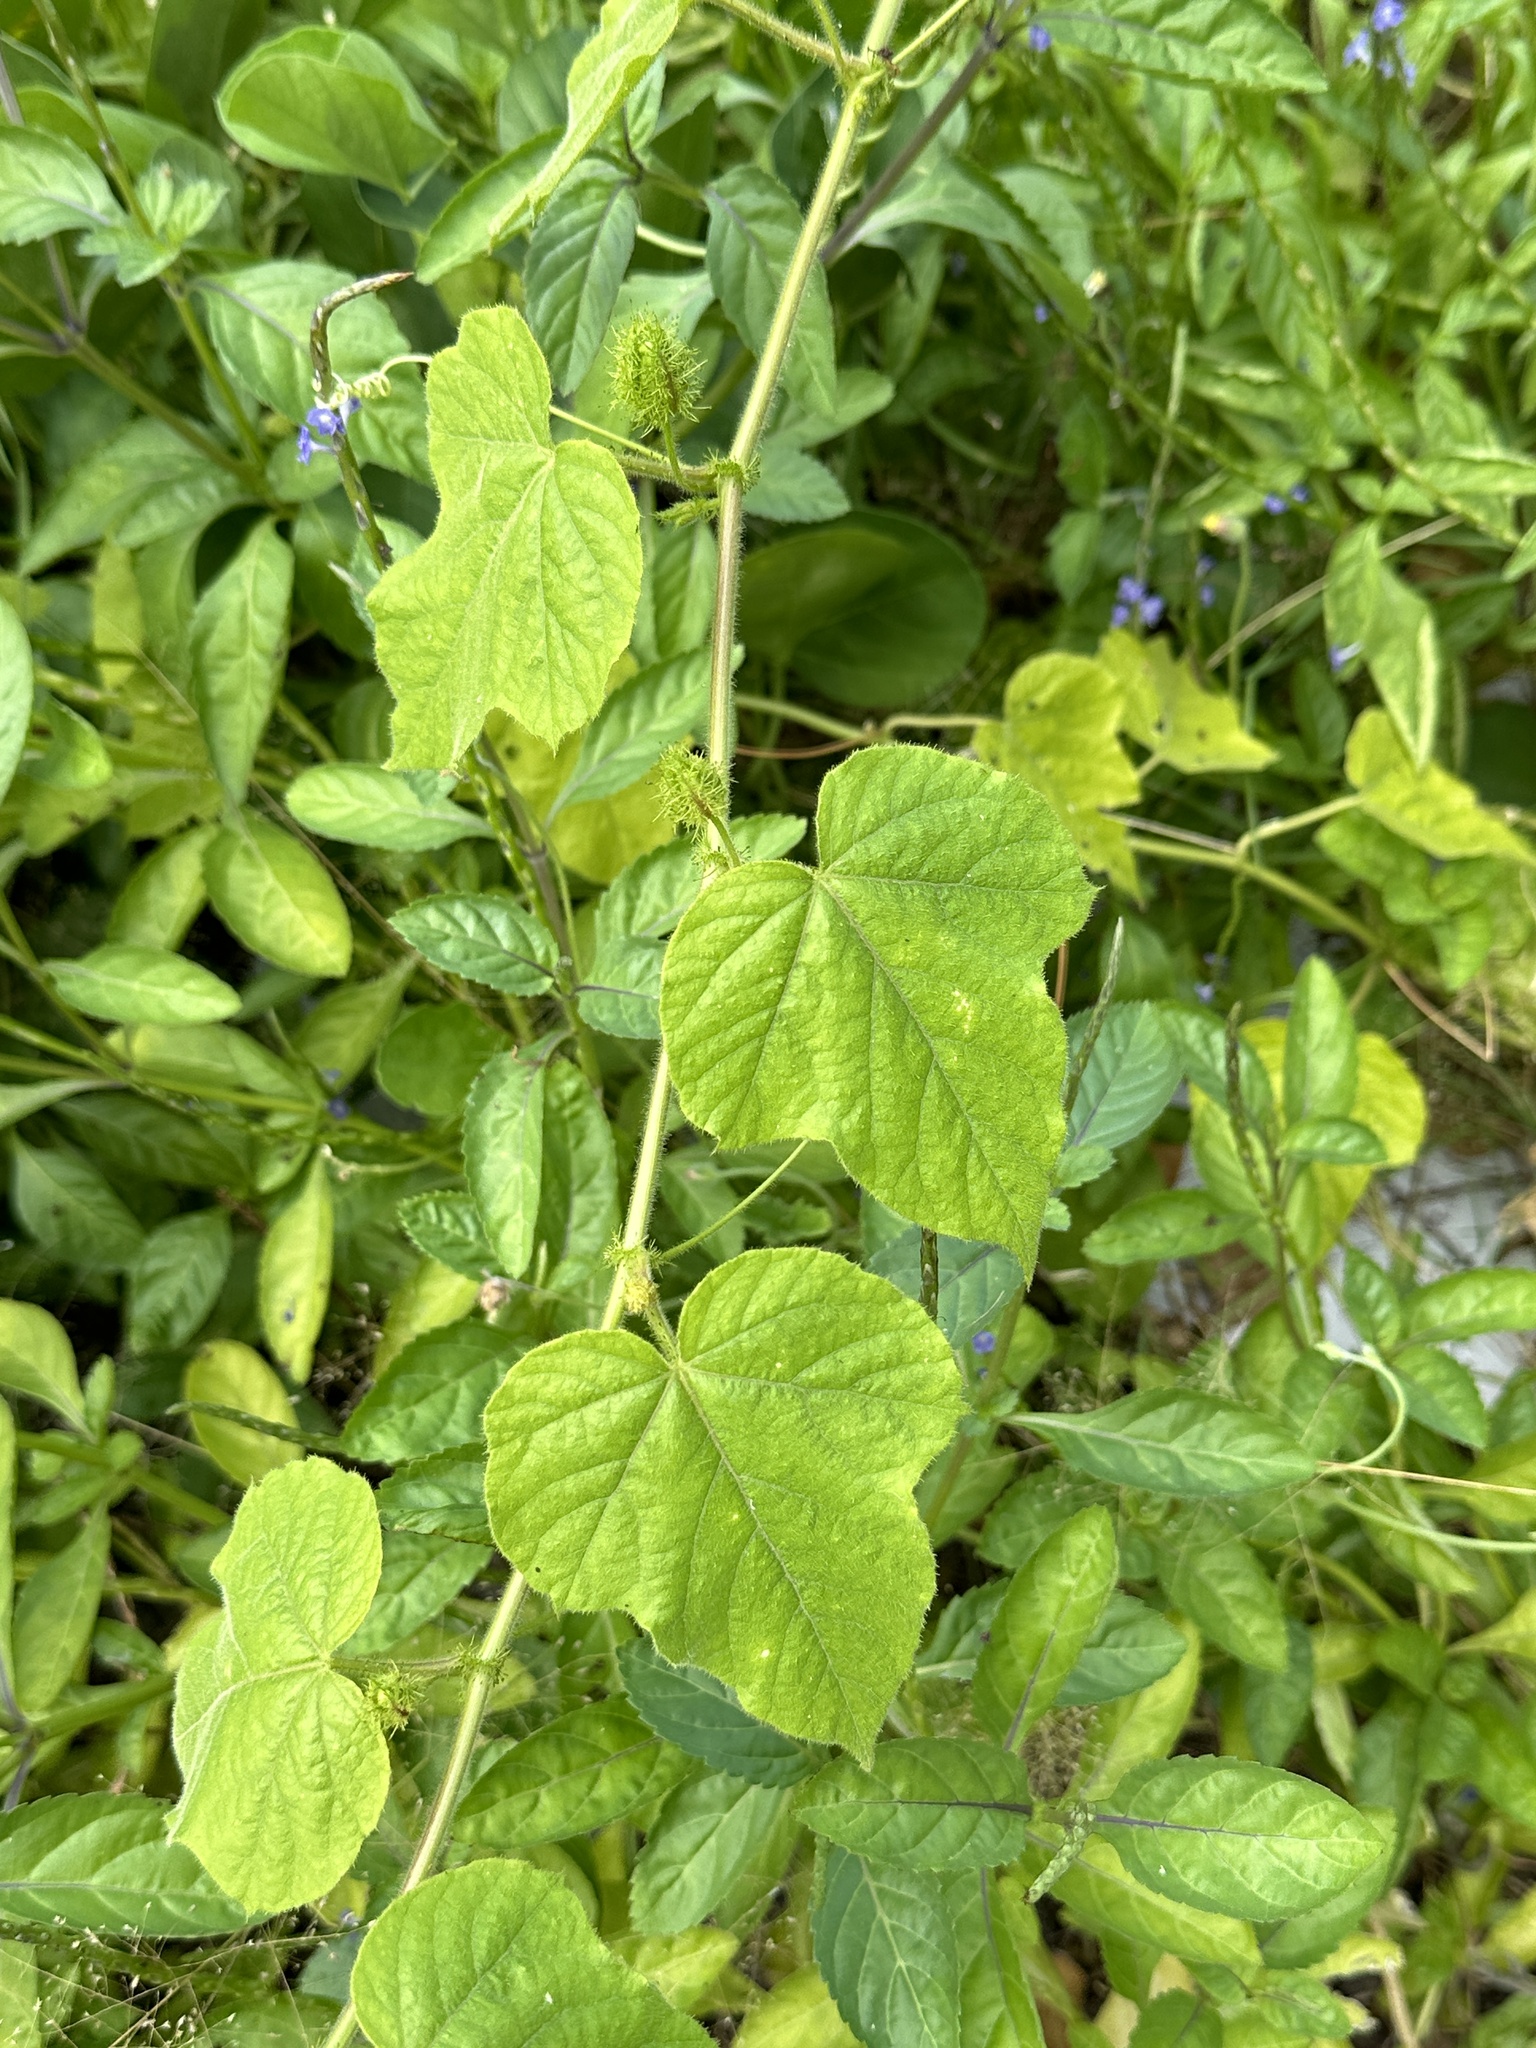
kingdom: Plantae
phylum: Tracheophyta
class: Magnoliopsida
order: Malpighiales
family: Passifloraceae
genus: Passiflora
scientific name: Passiflora vesicaria
